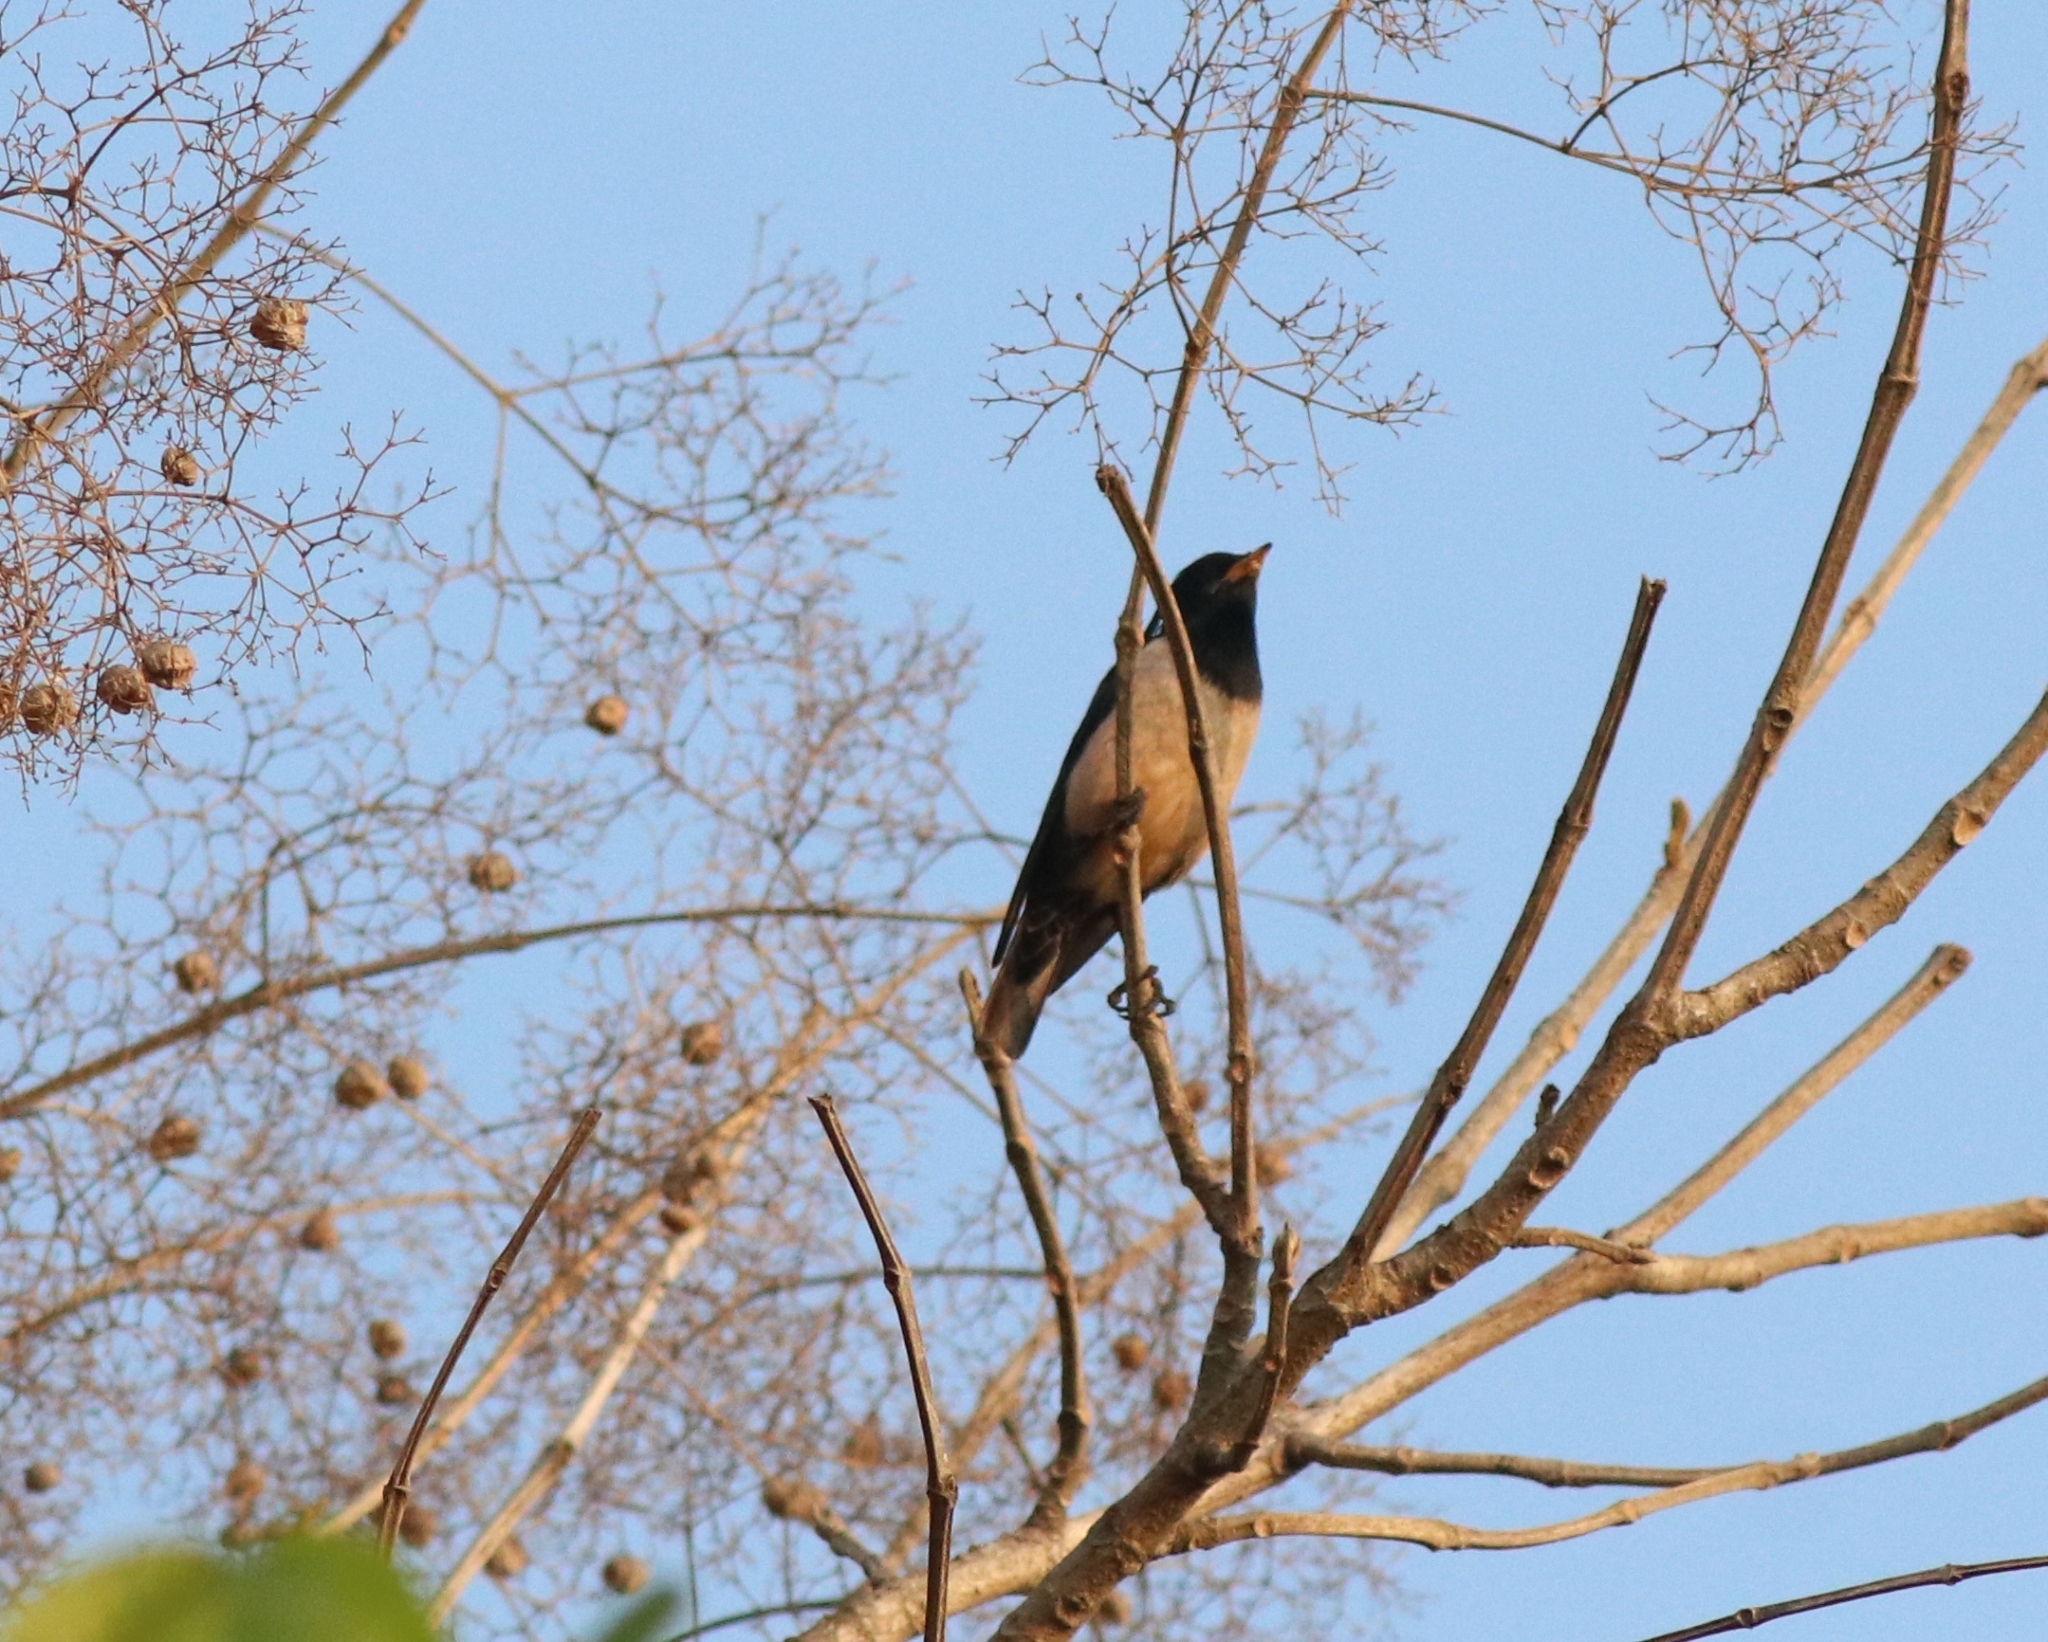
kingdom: Animalia
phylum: Chordata
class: Aves
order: Passeriformes
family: Sturnidae
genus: Pastor
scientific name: Pastor roseus
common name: Rosy starling
